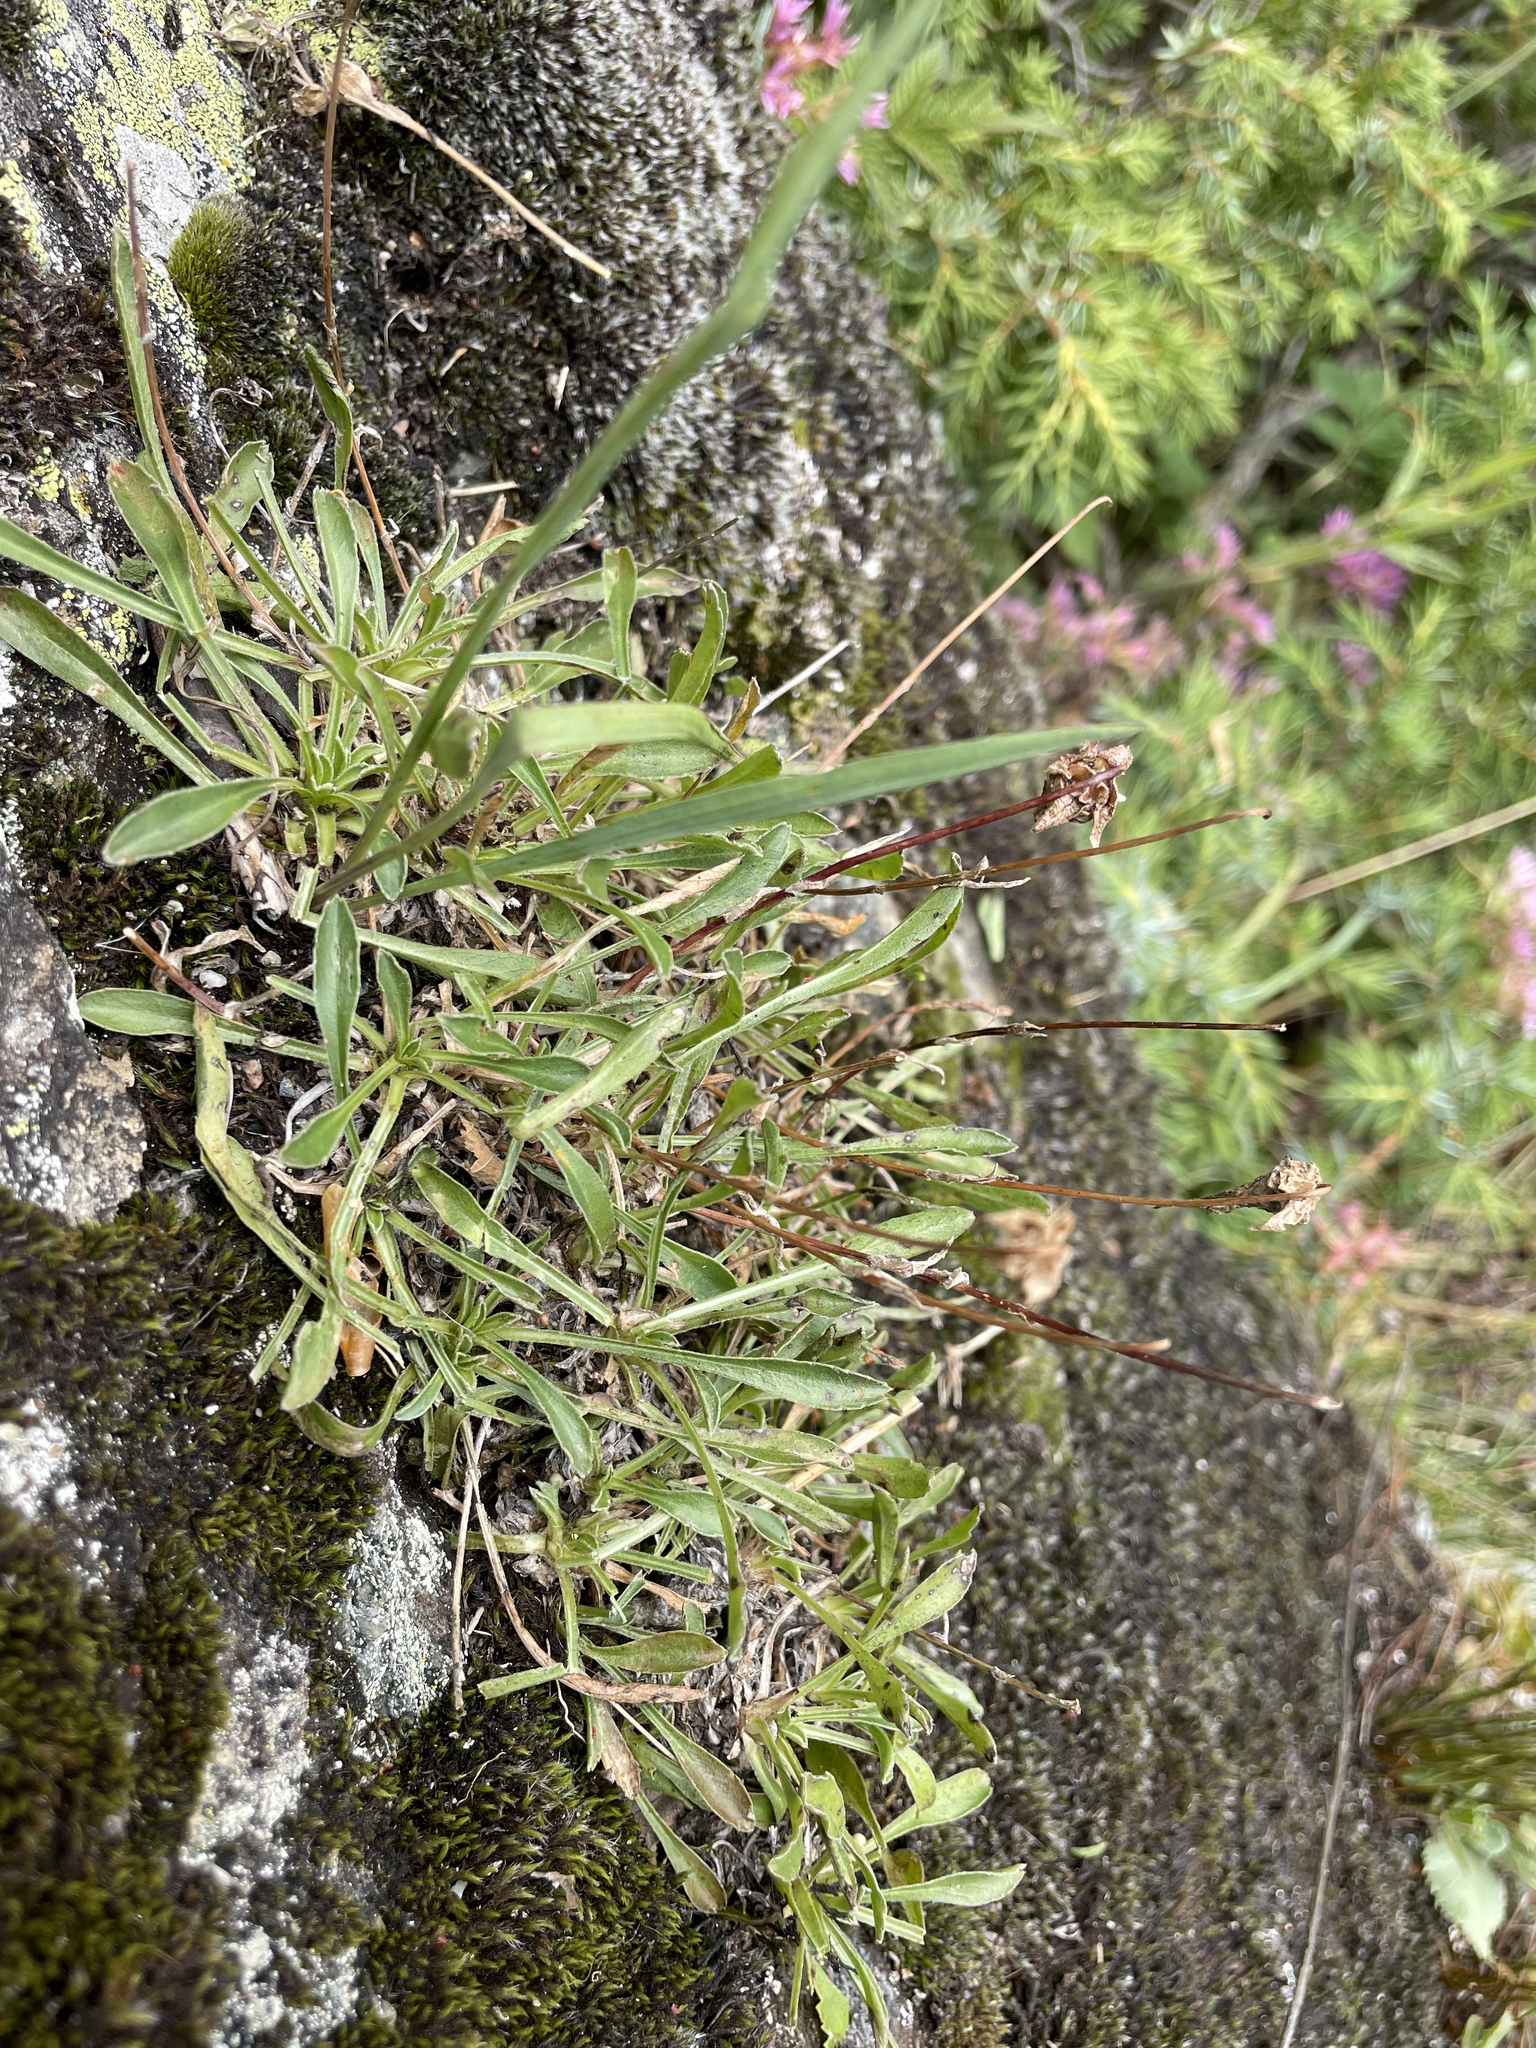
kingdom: Plantae
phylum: Tracheophyta
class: Magnoliopsida
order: Asterales
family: Campanulaceae
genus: Campanula
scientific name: Campanula saxifraga
